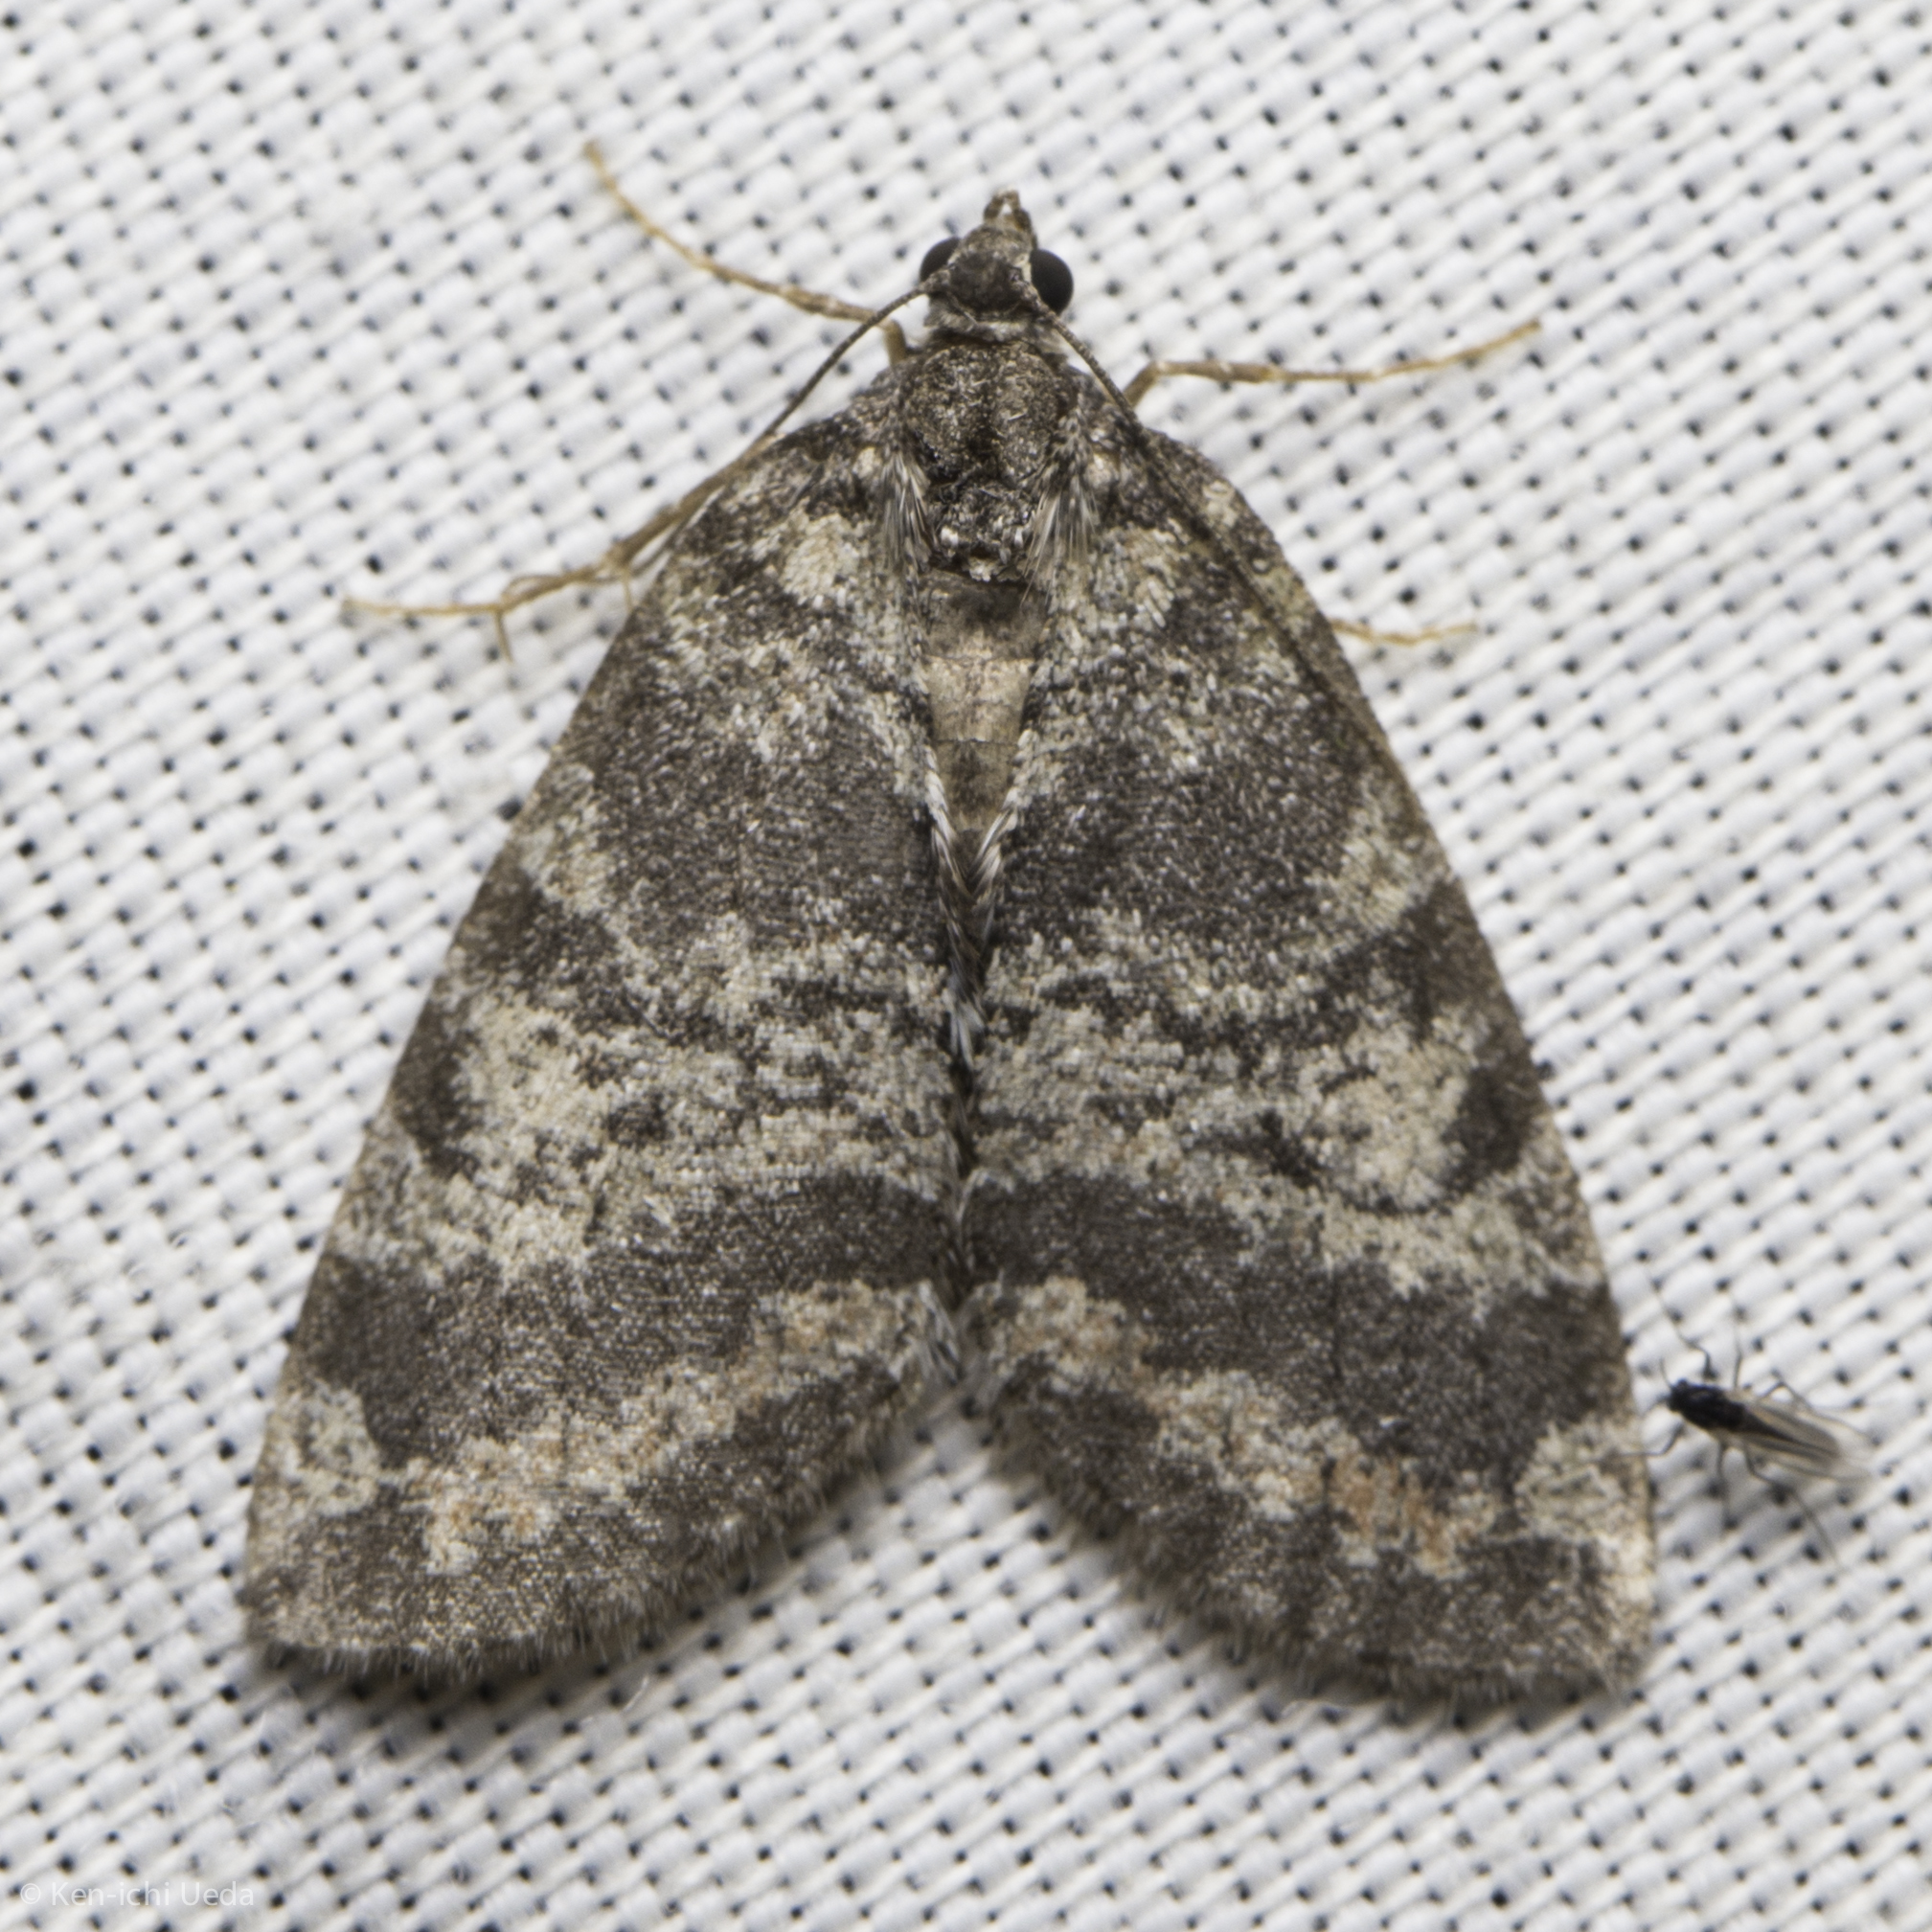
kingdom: Animalia
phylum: Arthropoda
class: Insecta
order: Lepidoptera
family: Geometridae
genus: Hydriomena
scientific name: Hydriomena nubilofasciata
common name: Oak winter highflier moth
